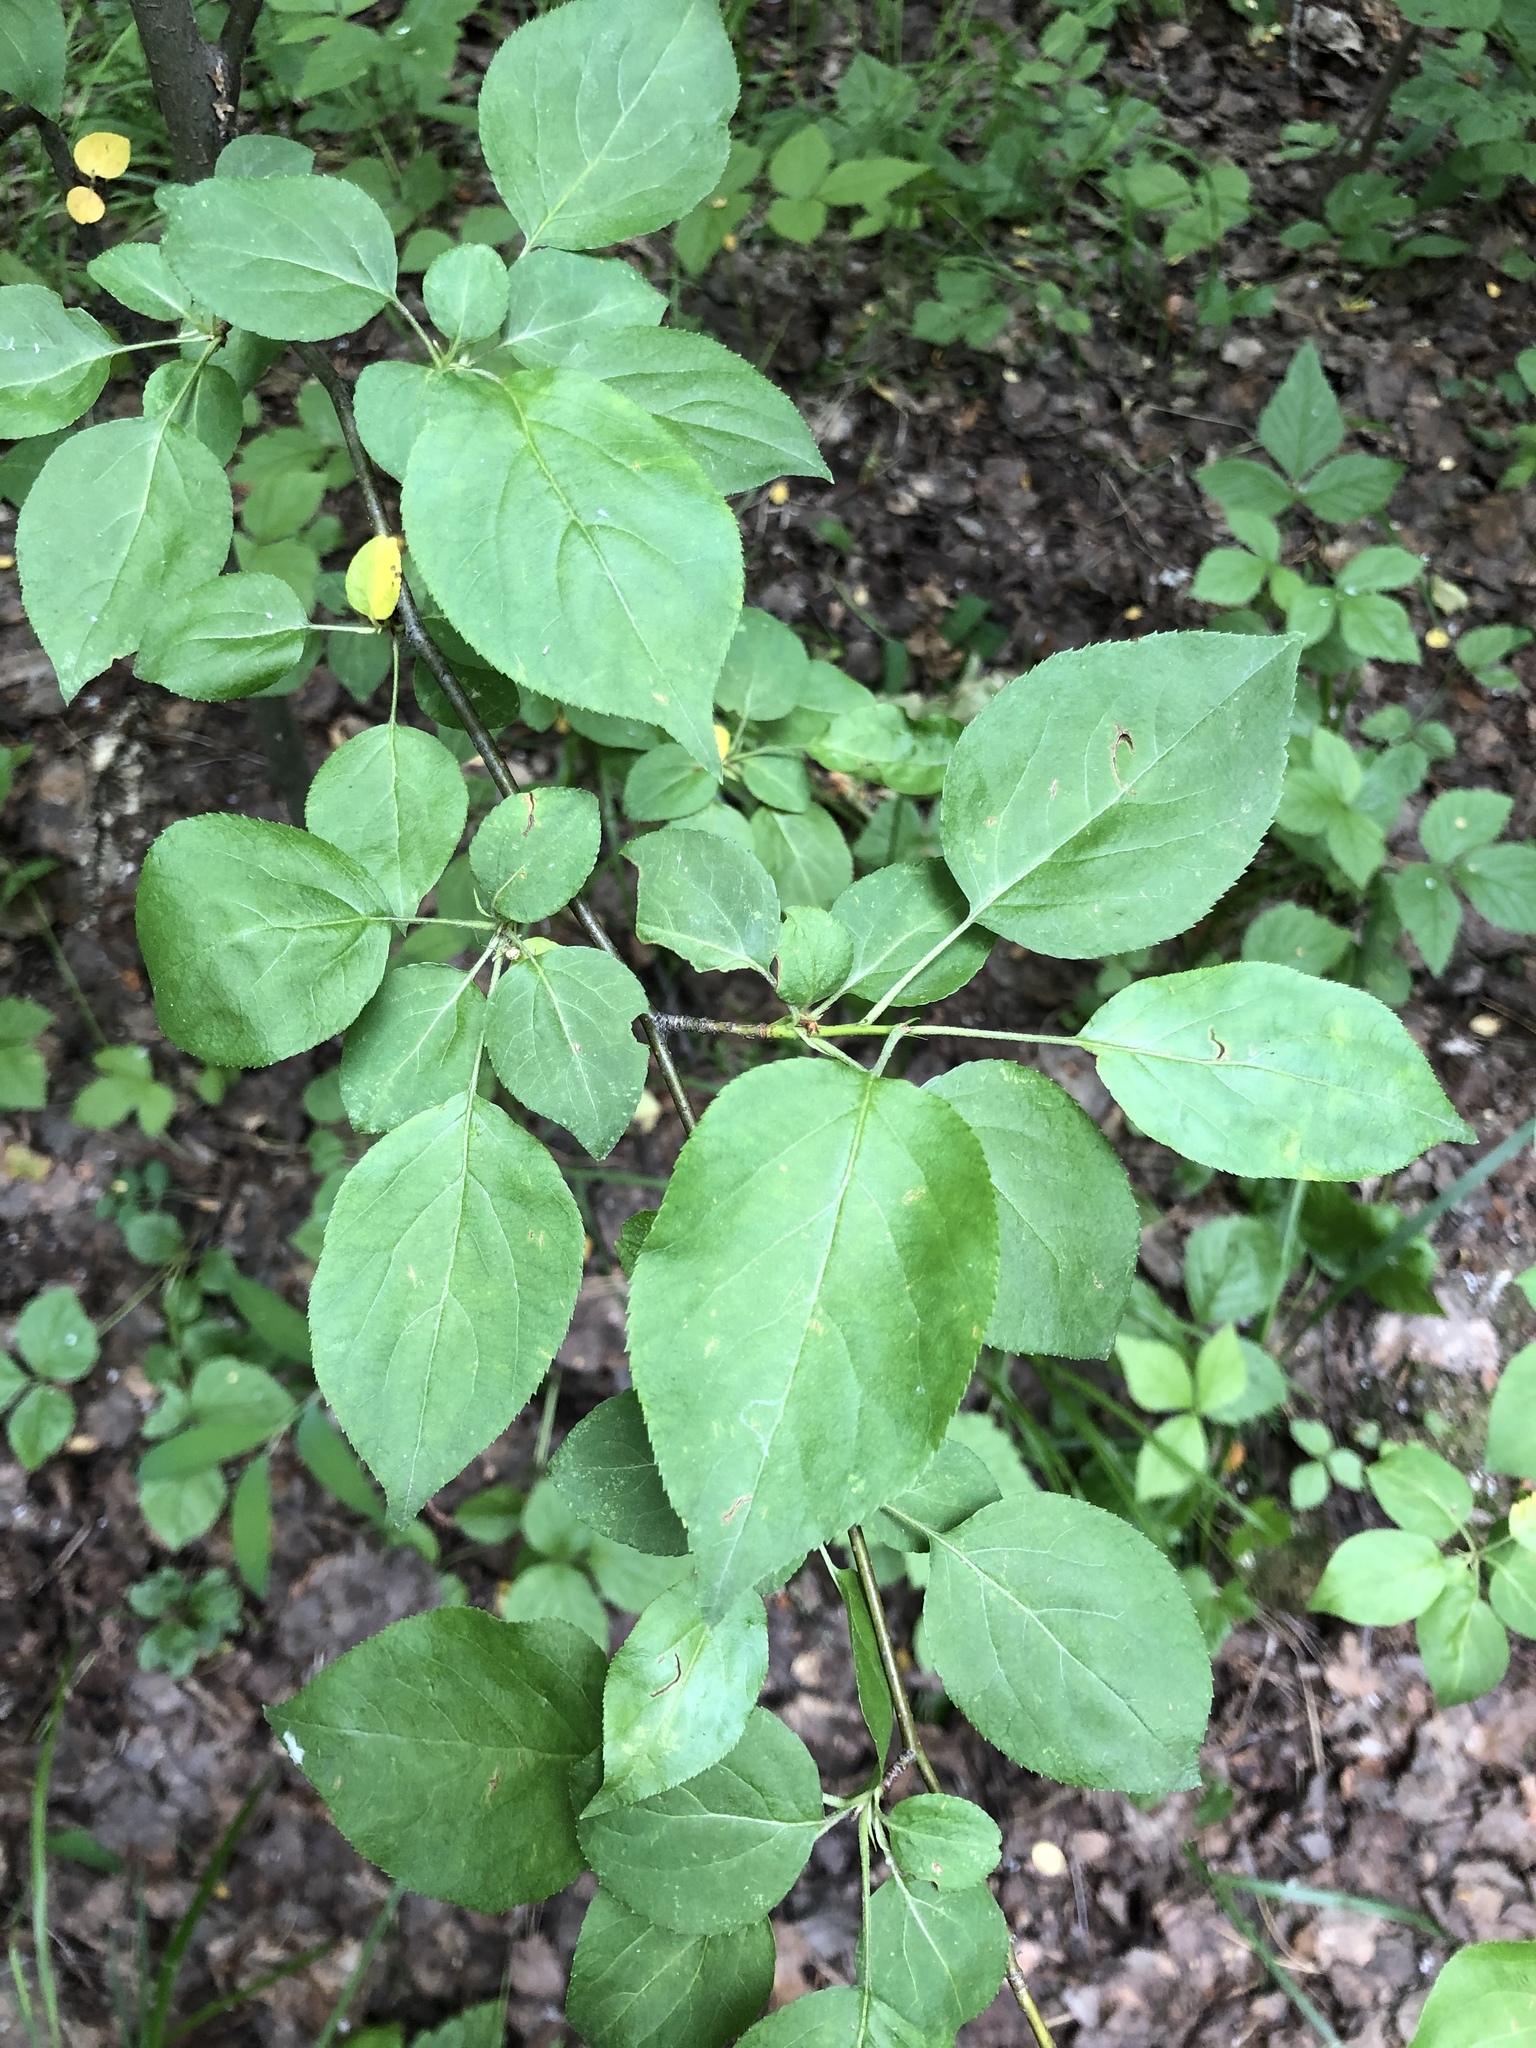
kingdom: Plantae
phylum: Tracheophyta
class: Magnoliopsida
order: Rosales
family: Rosaceae
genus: Malus
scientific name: Malus baccata
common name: Siberian crab
